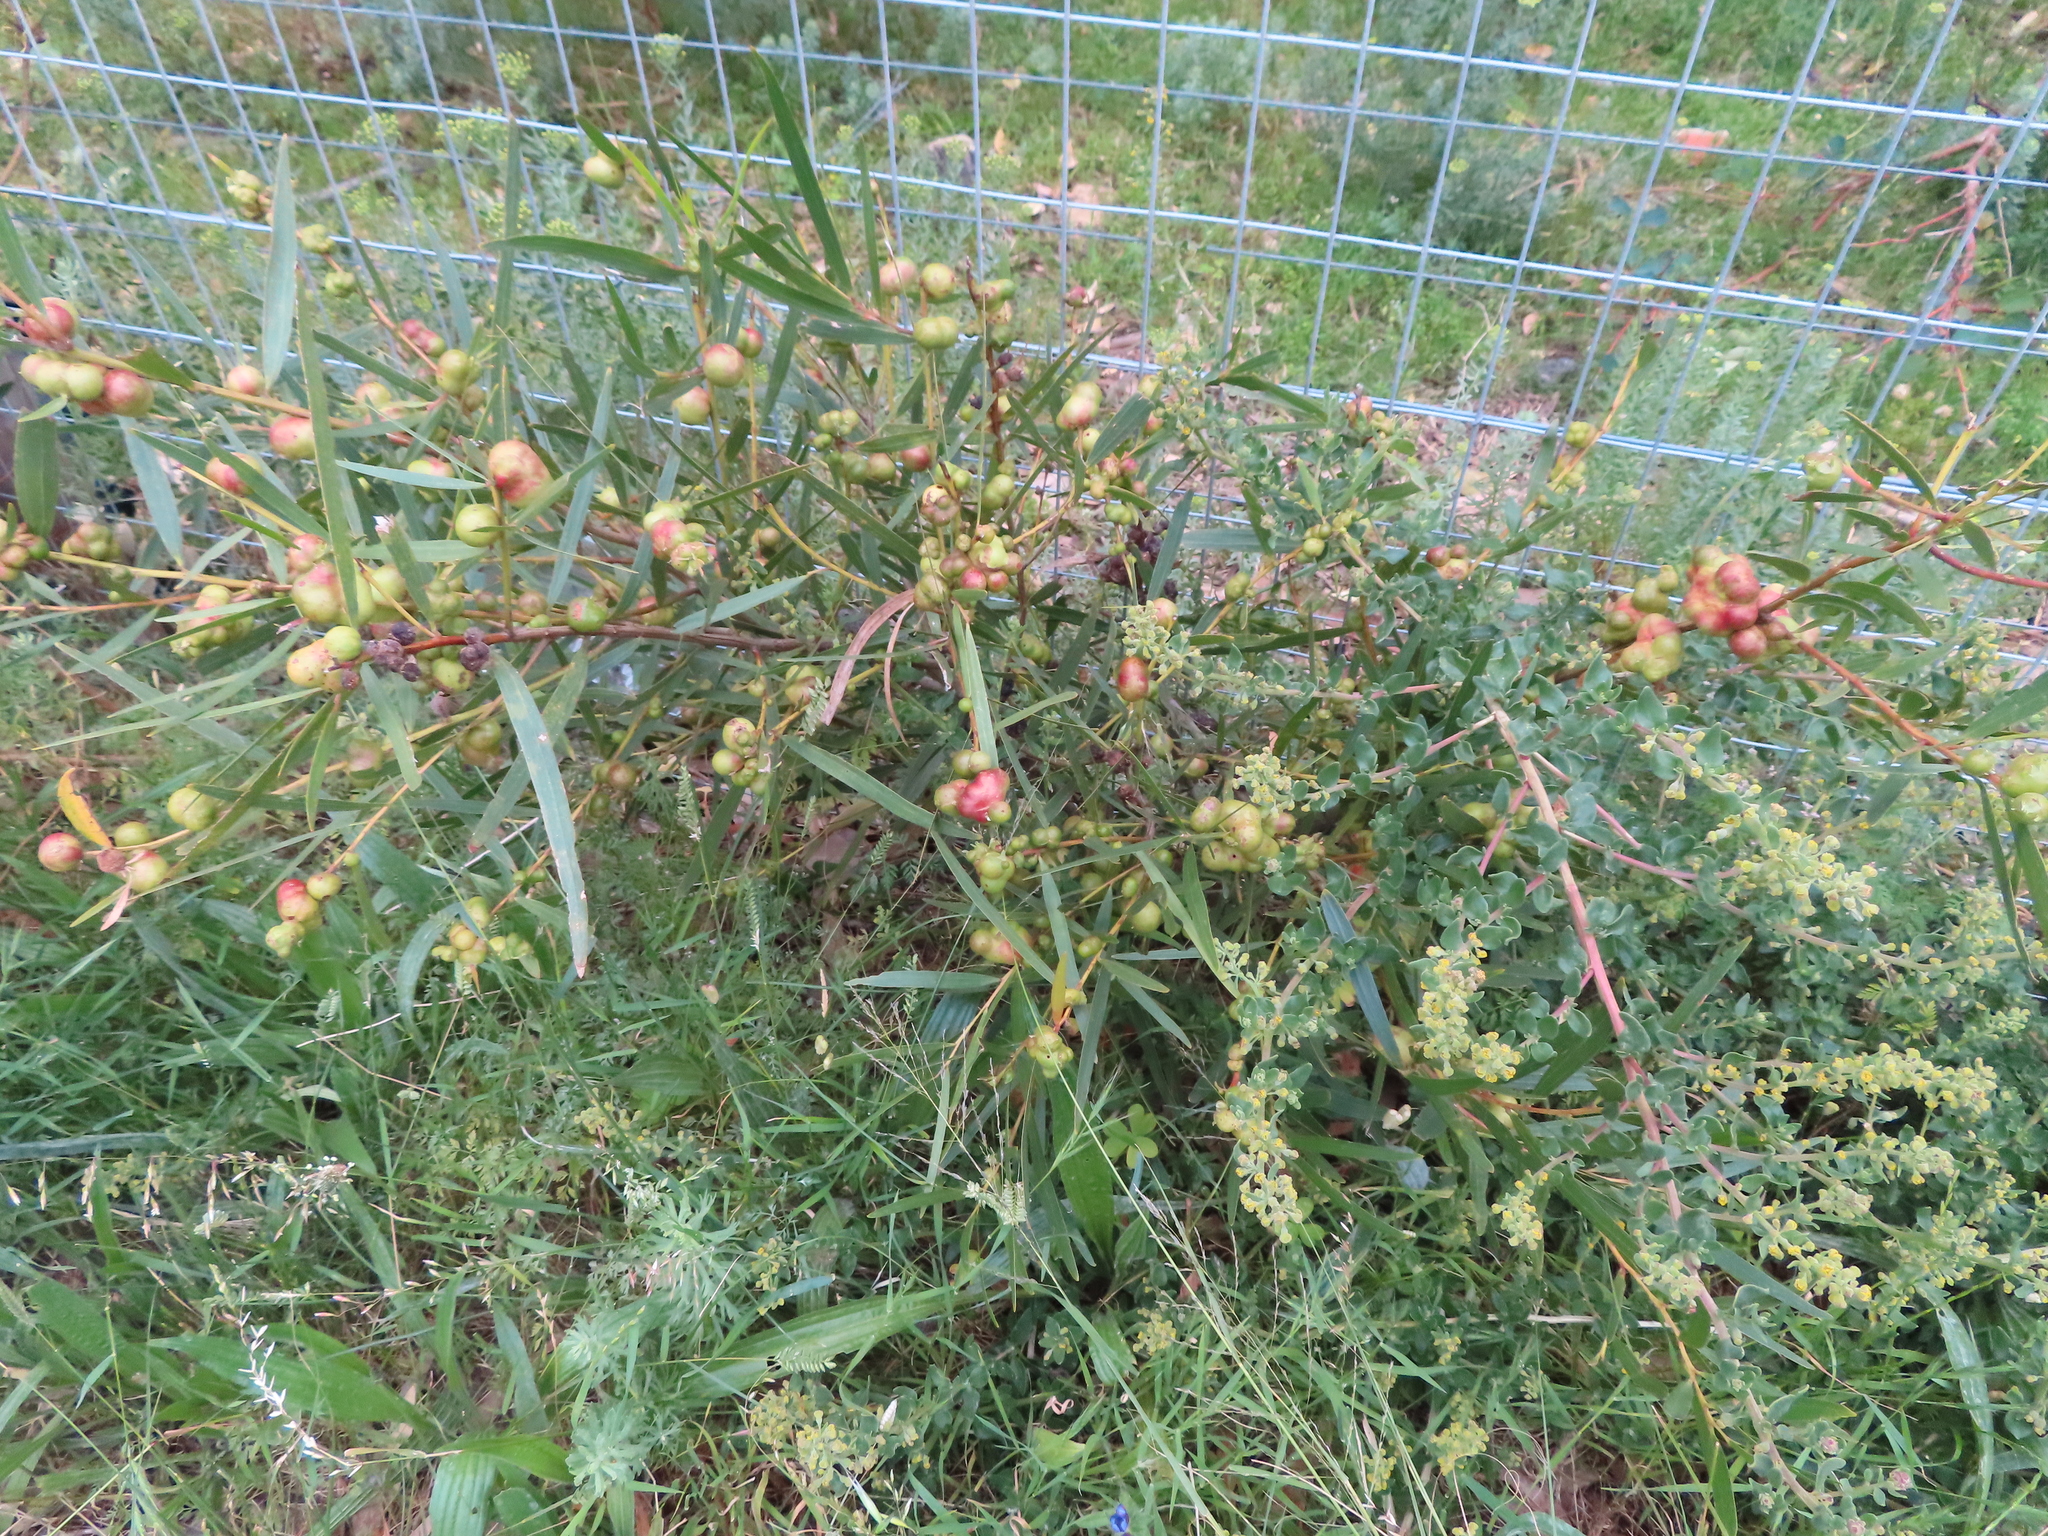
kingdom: Plantae
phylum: Tracheophyta
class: Magnoliopsida
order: Fabales
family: Fabaceae
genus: Acacia
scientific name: Acacia longifolia
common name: Sydney golden wattle
